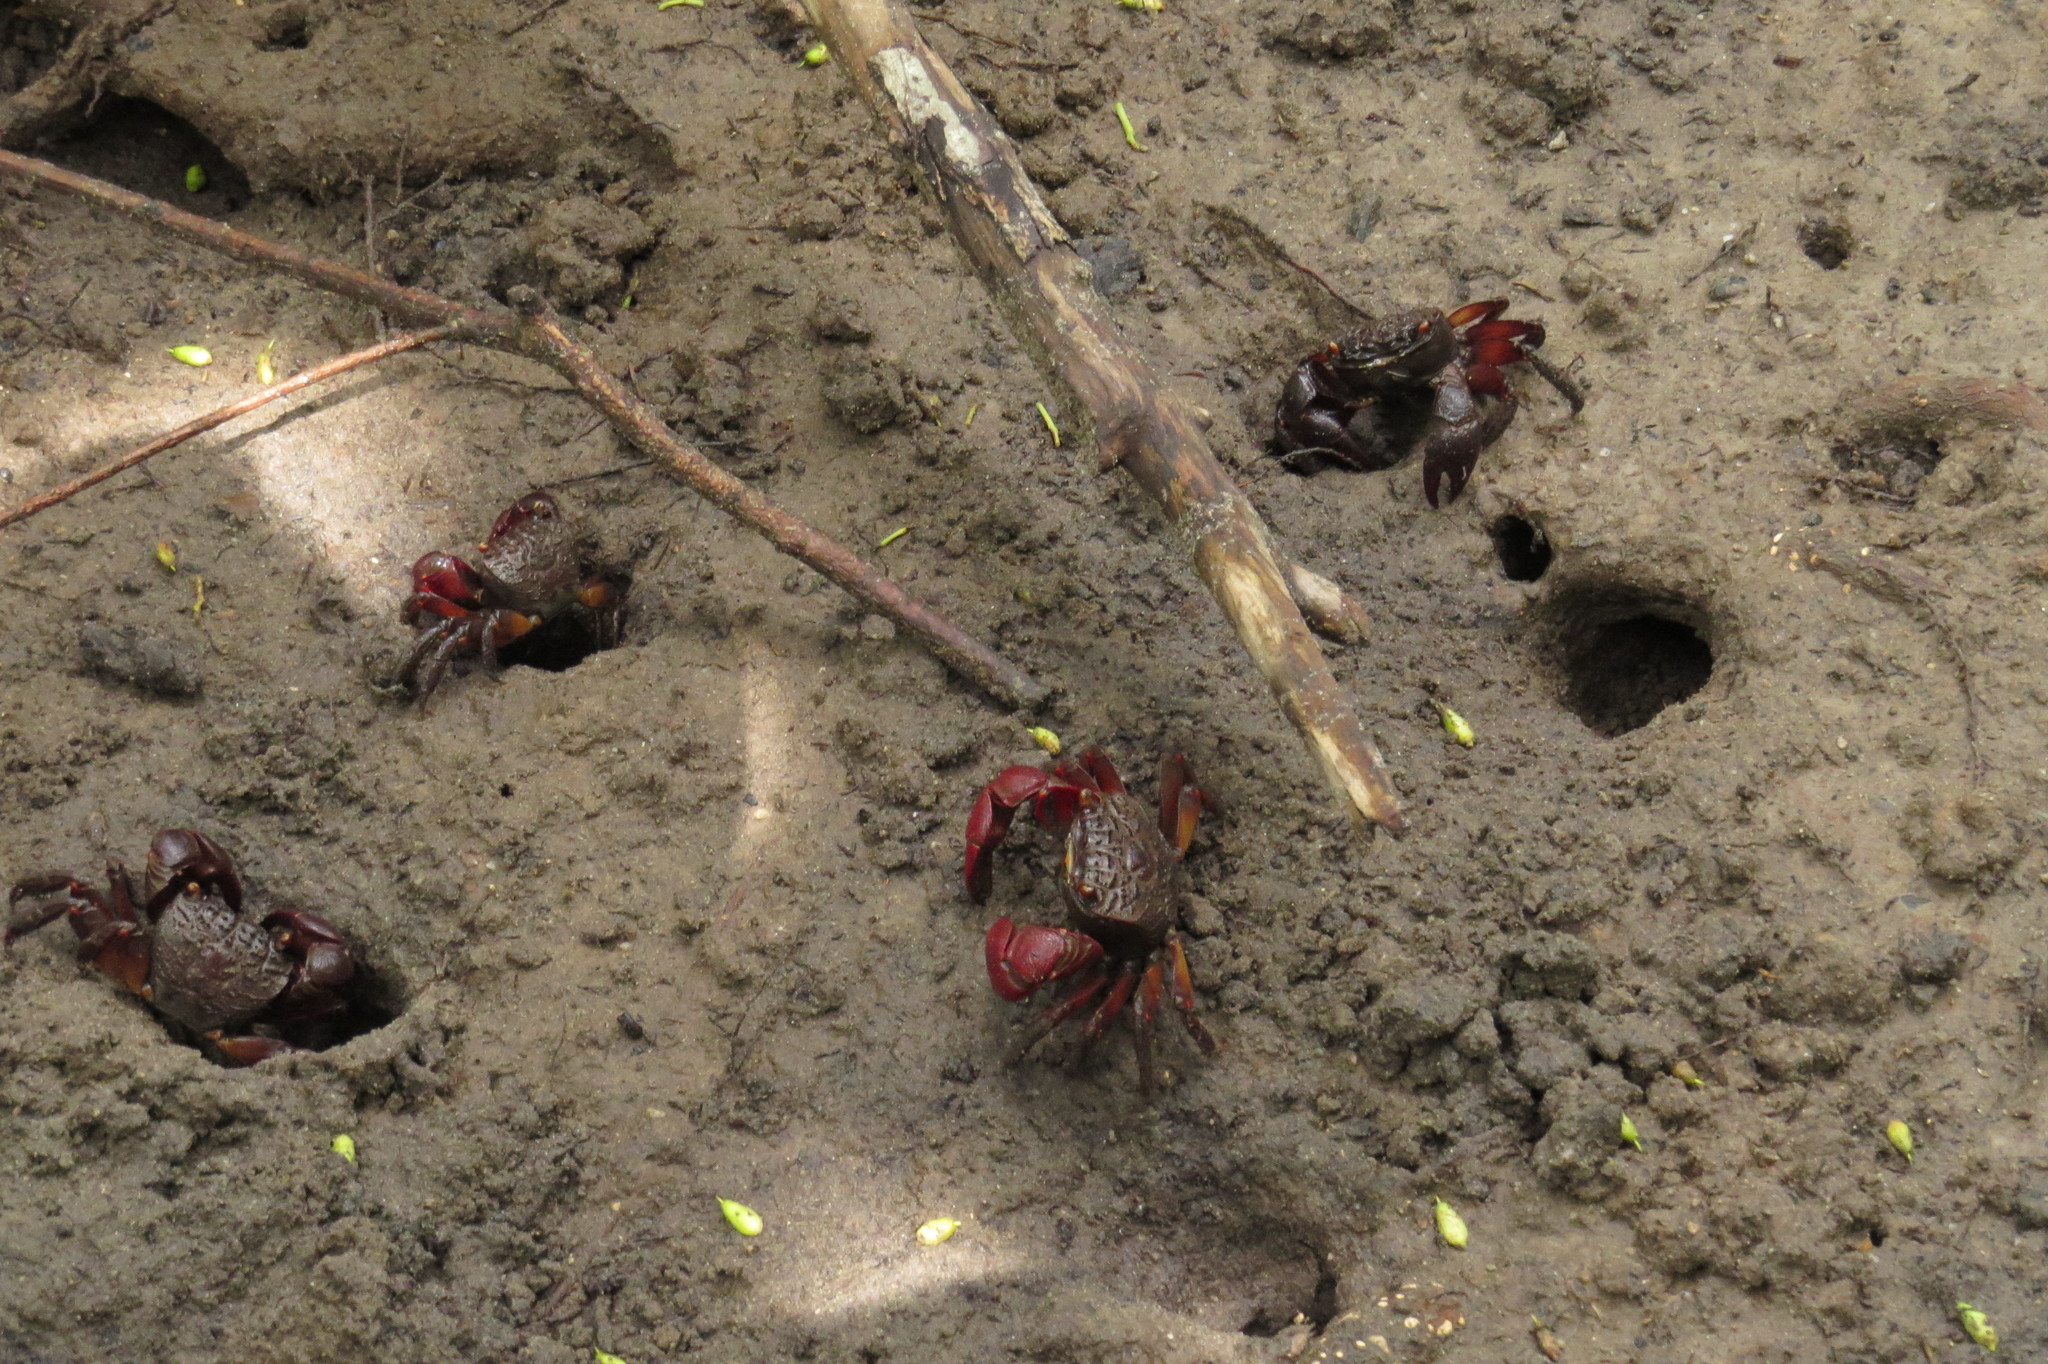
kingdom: Animalia
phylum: Arthropoda
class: Malacostraca
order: Decapoda
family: Sesarmidae
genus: Neosarmatium
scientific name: Neosarmatium fourmanoiri
